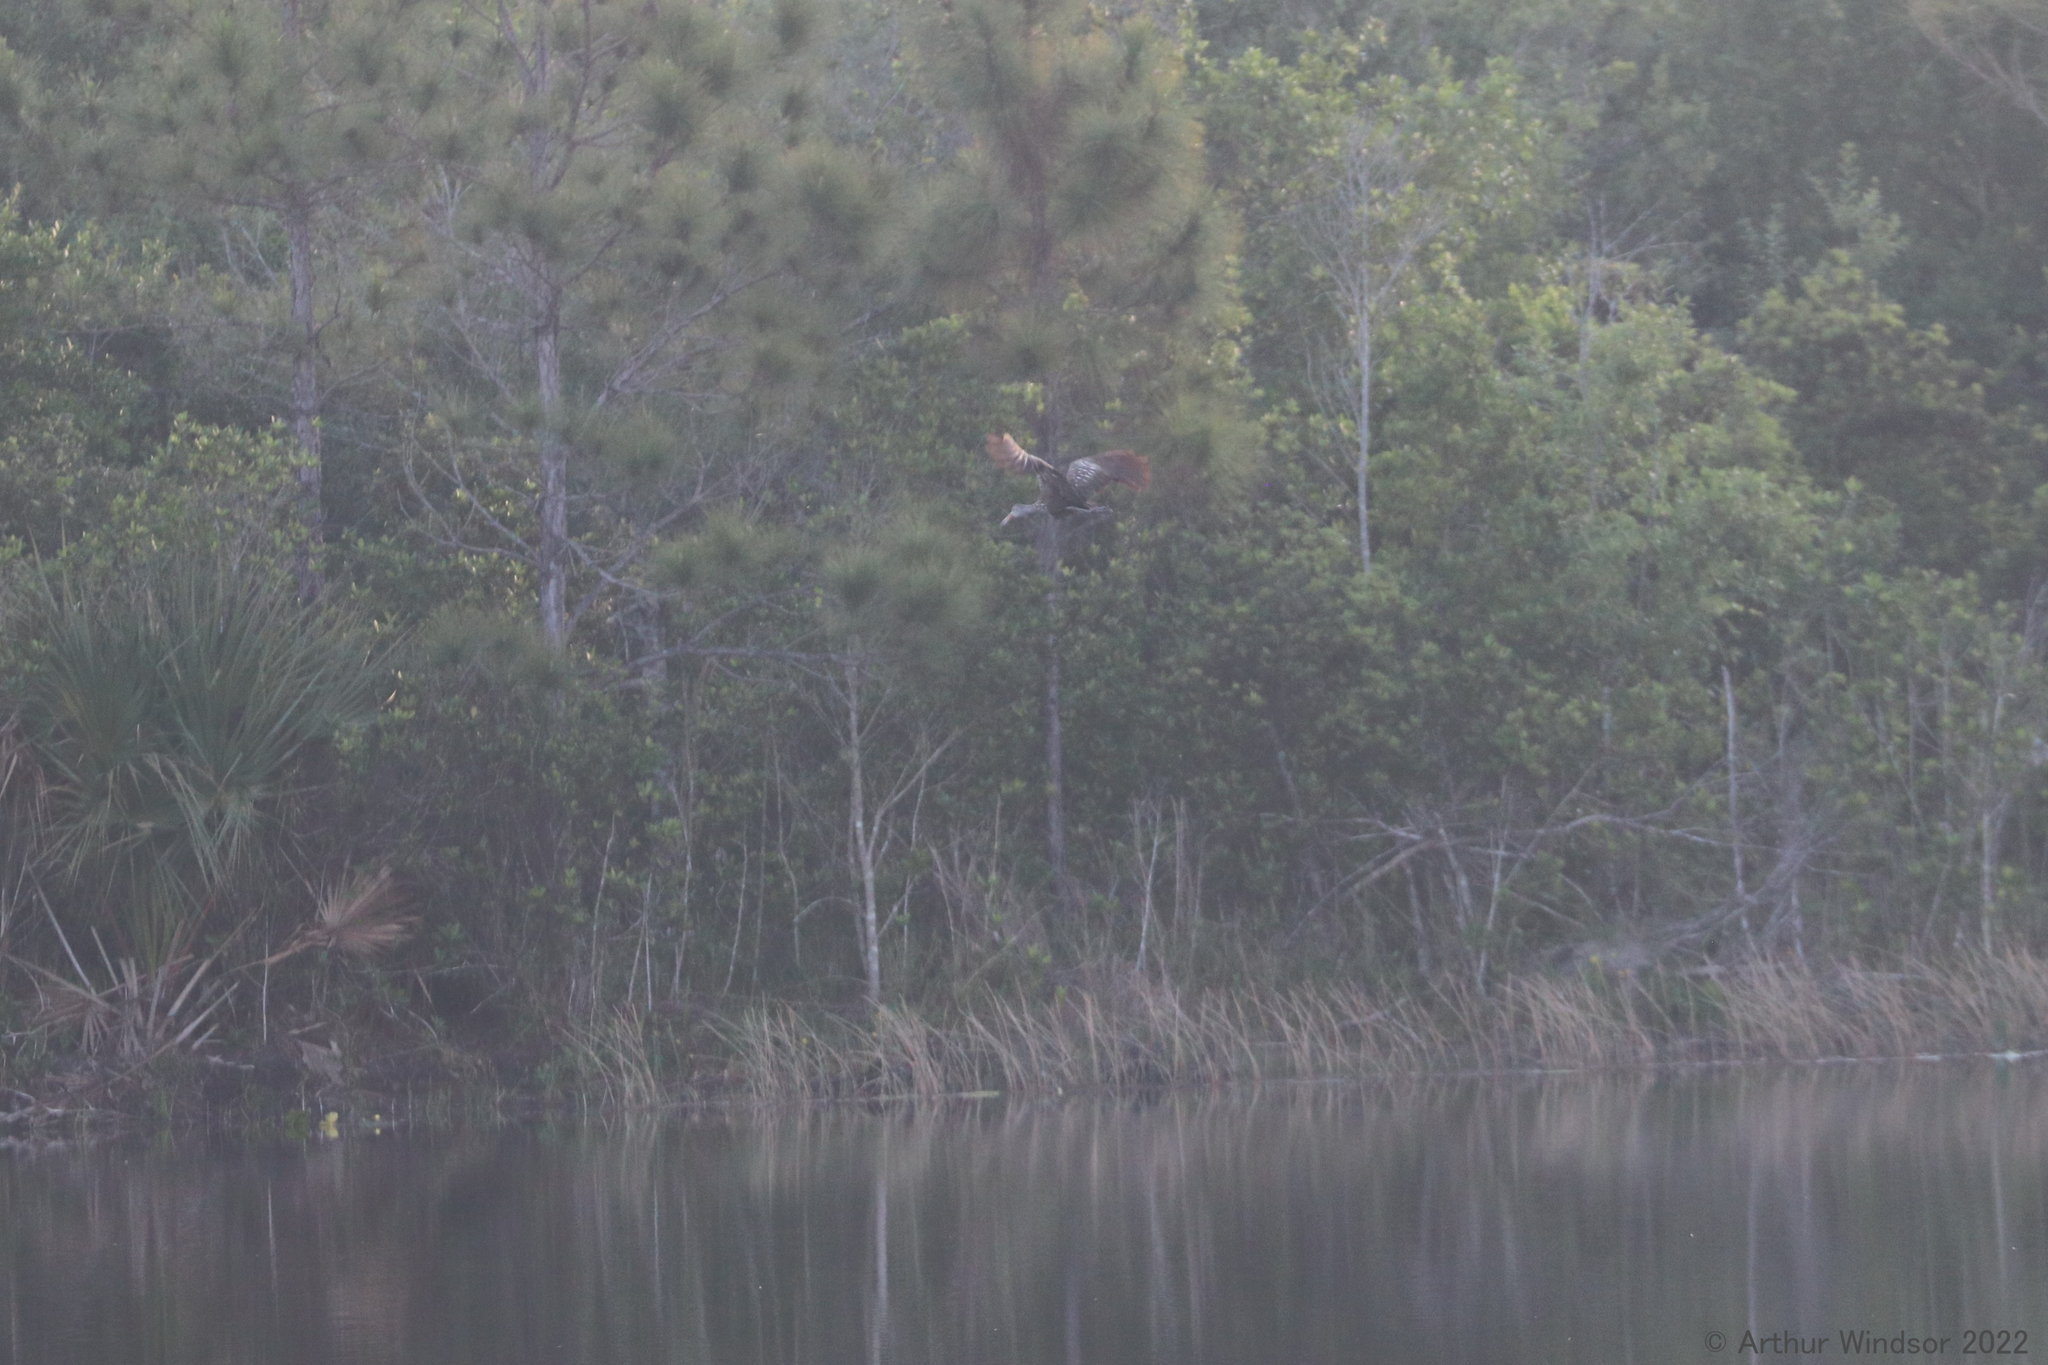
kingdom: Animalia
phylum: Chordata
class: Aves
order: Gruiformes
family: Aramidae
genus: Aramus
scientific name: Aramus guarauna
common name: Limpkin
